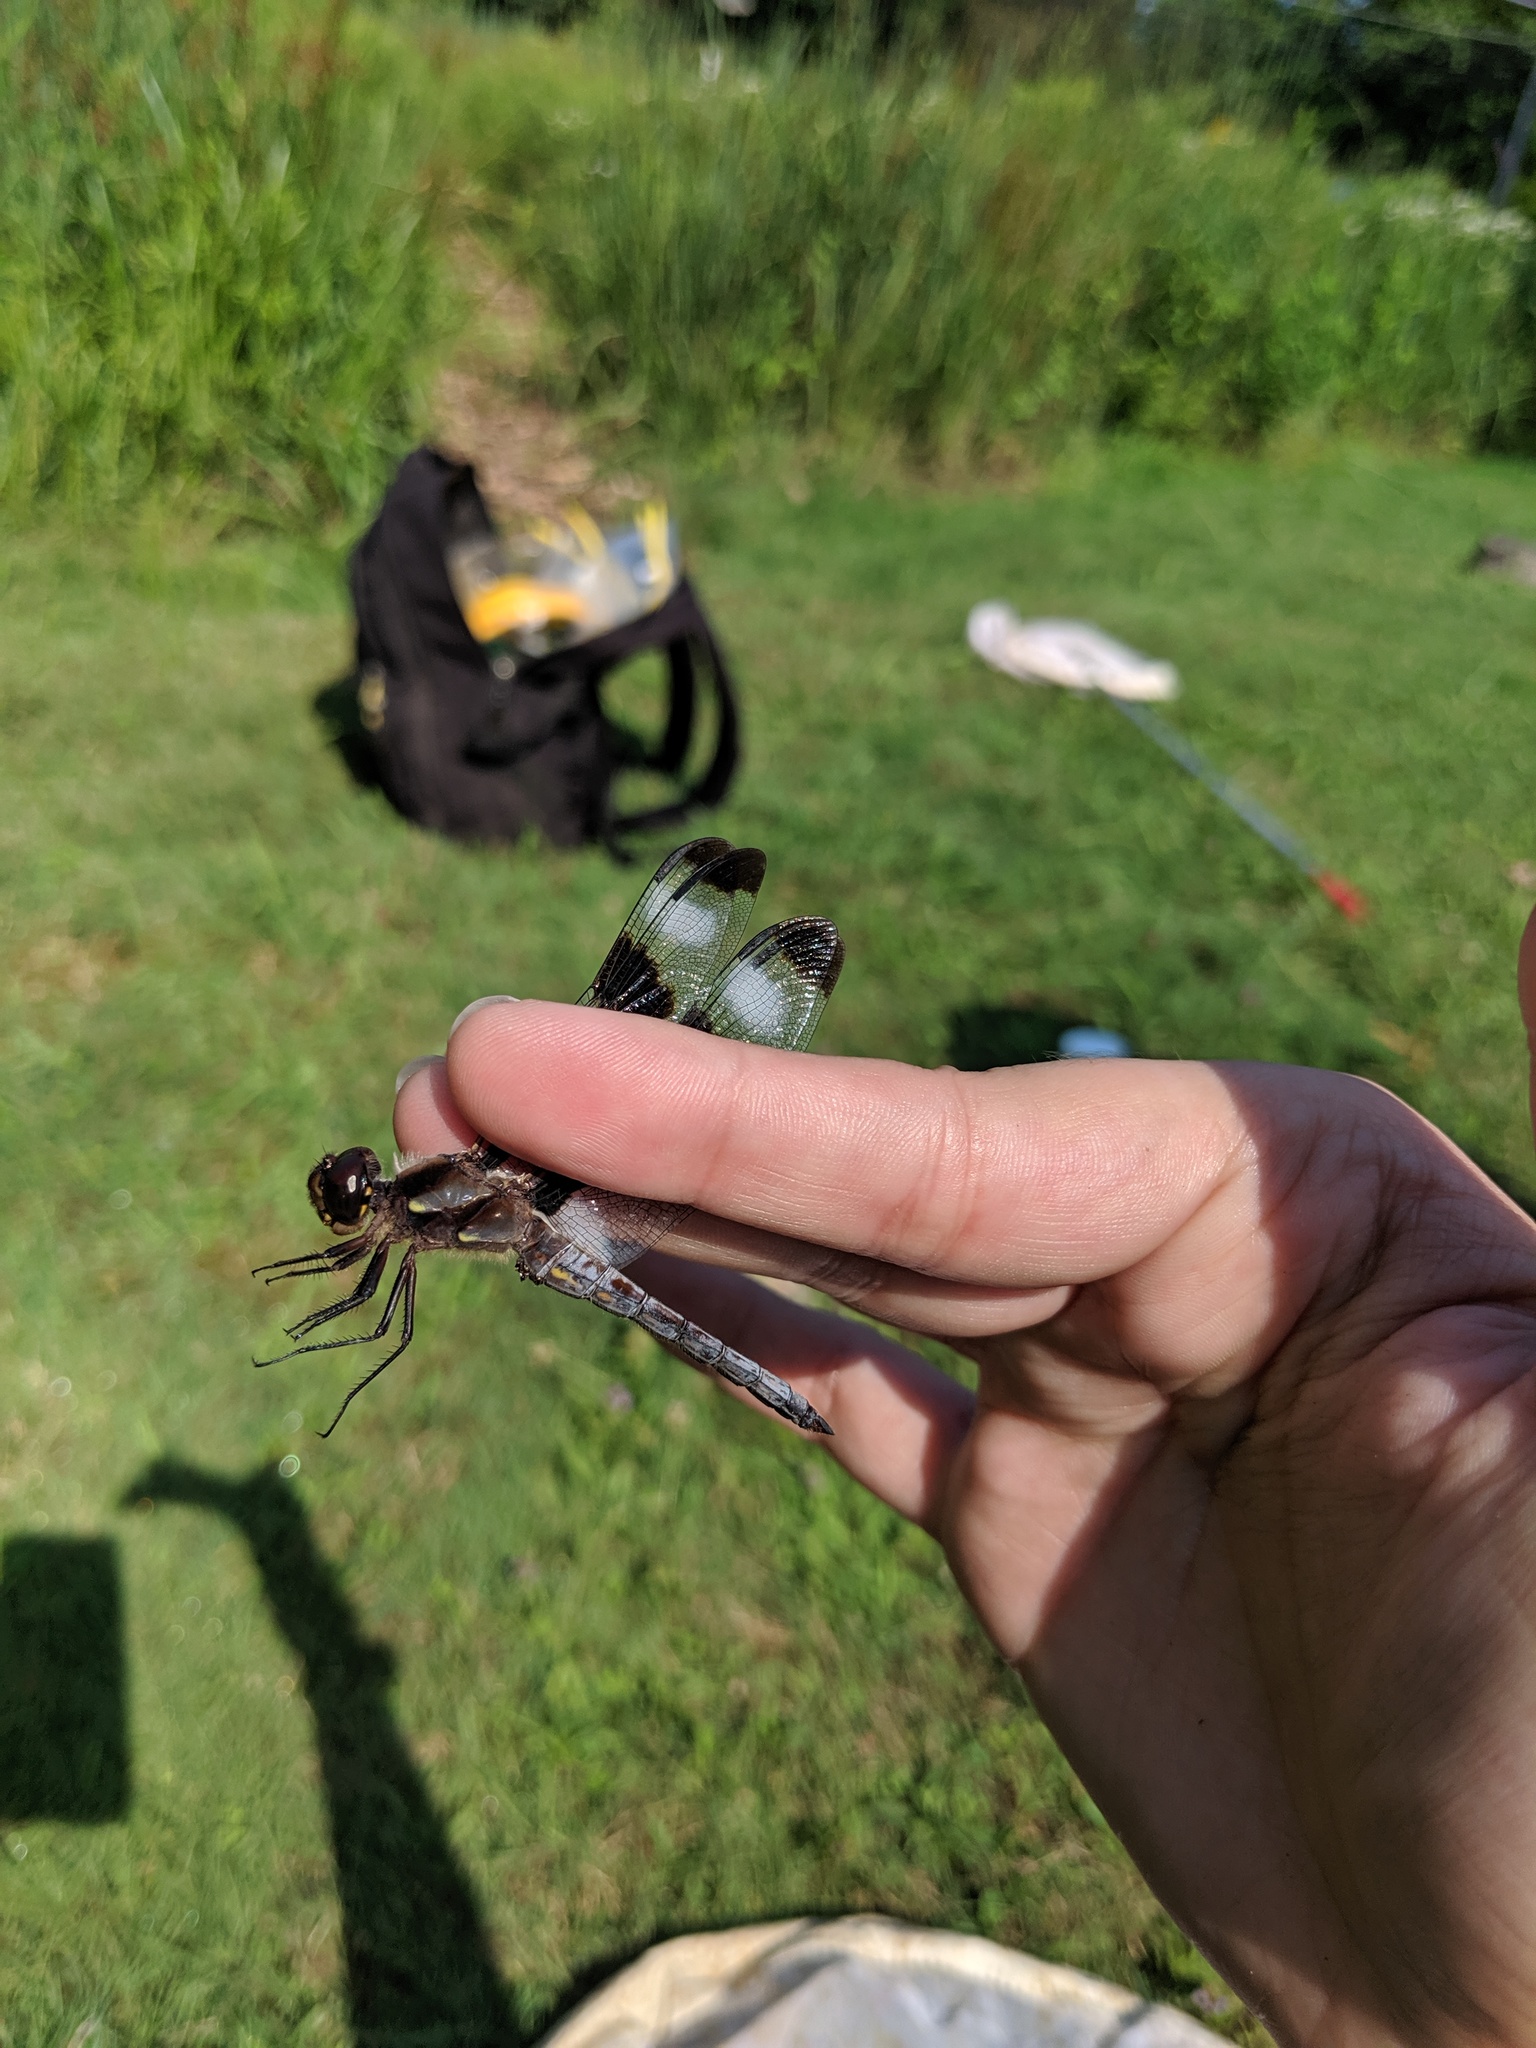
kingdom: Animalia
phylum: Arthropoda
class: Insecta
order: Odonata
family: Libellulidae
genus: Libellula
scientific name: Libellula pulchella
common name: Twelve-spotted skimmer
